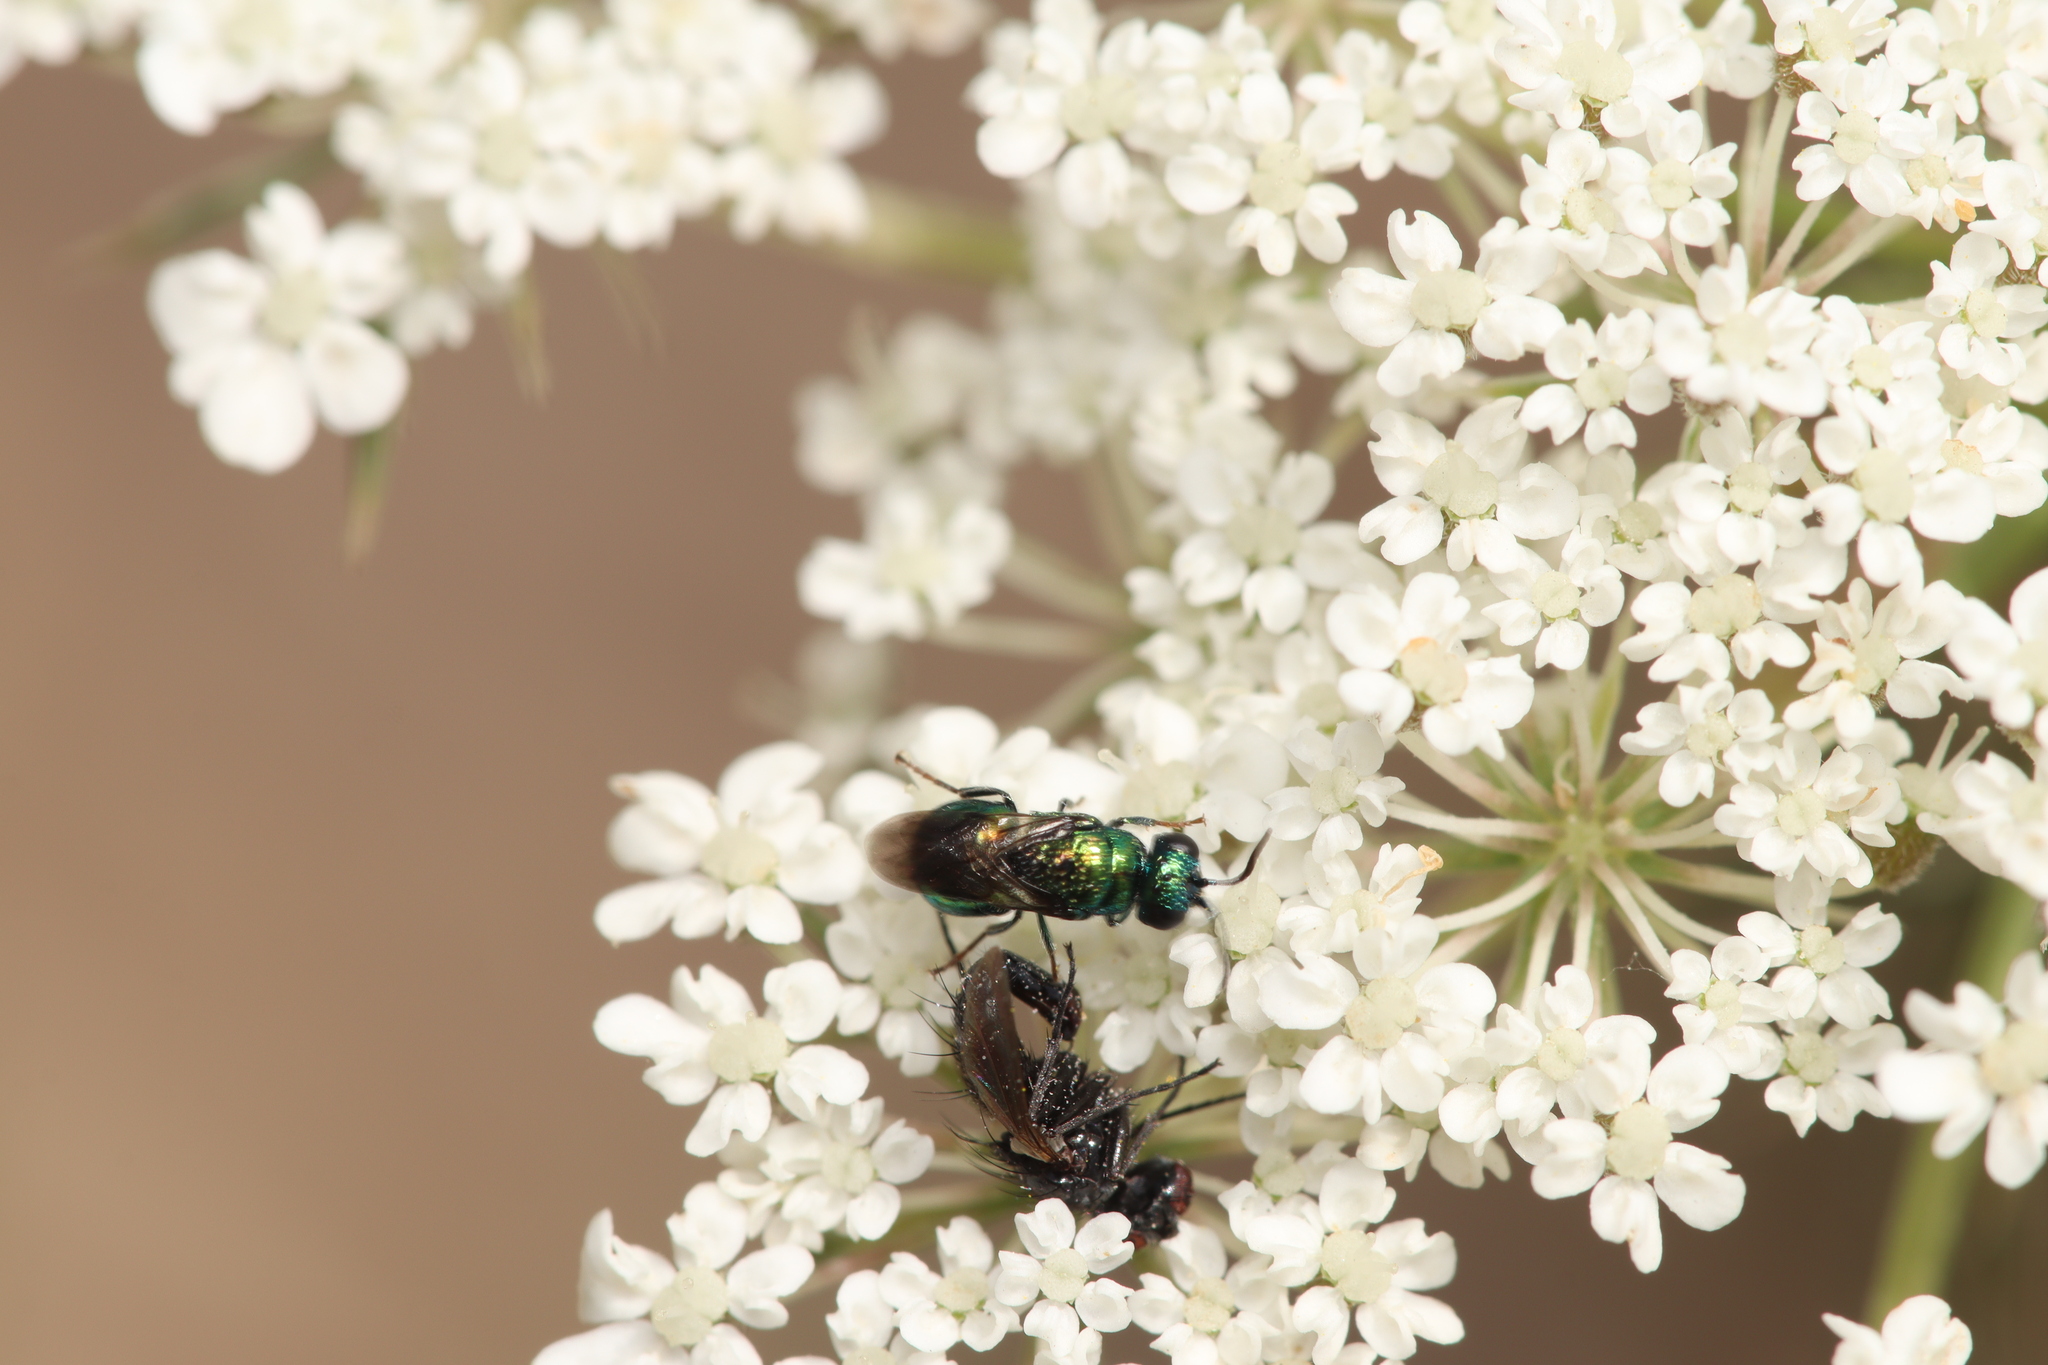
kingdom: Animalia
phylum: Arthropoda
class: Insecta
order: Hymenoptera
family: Chrysididae
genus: Pseudomalus
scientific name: Pseudomalus pusillus
